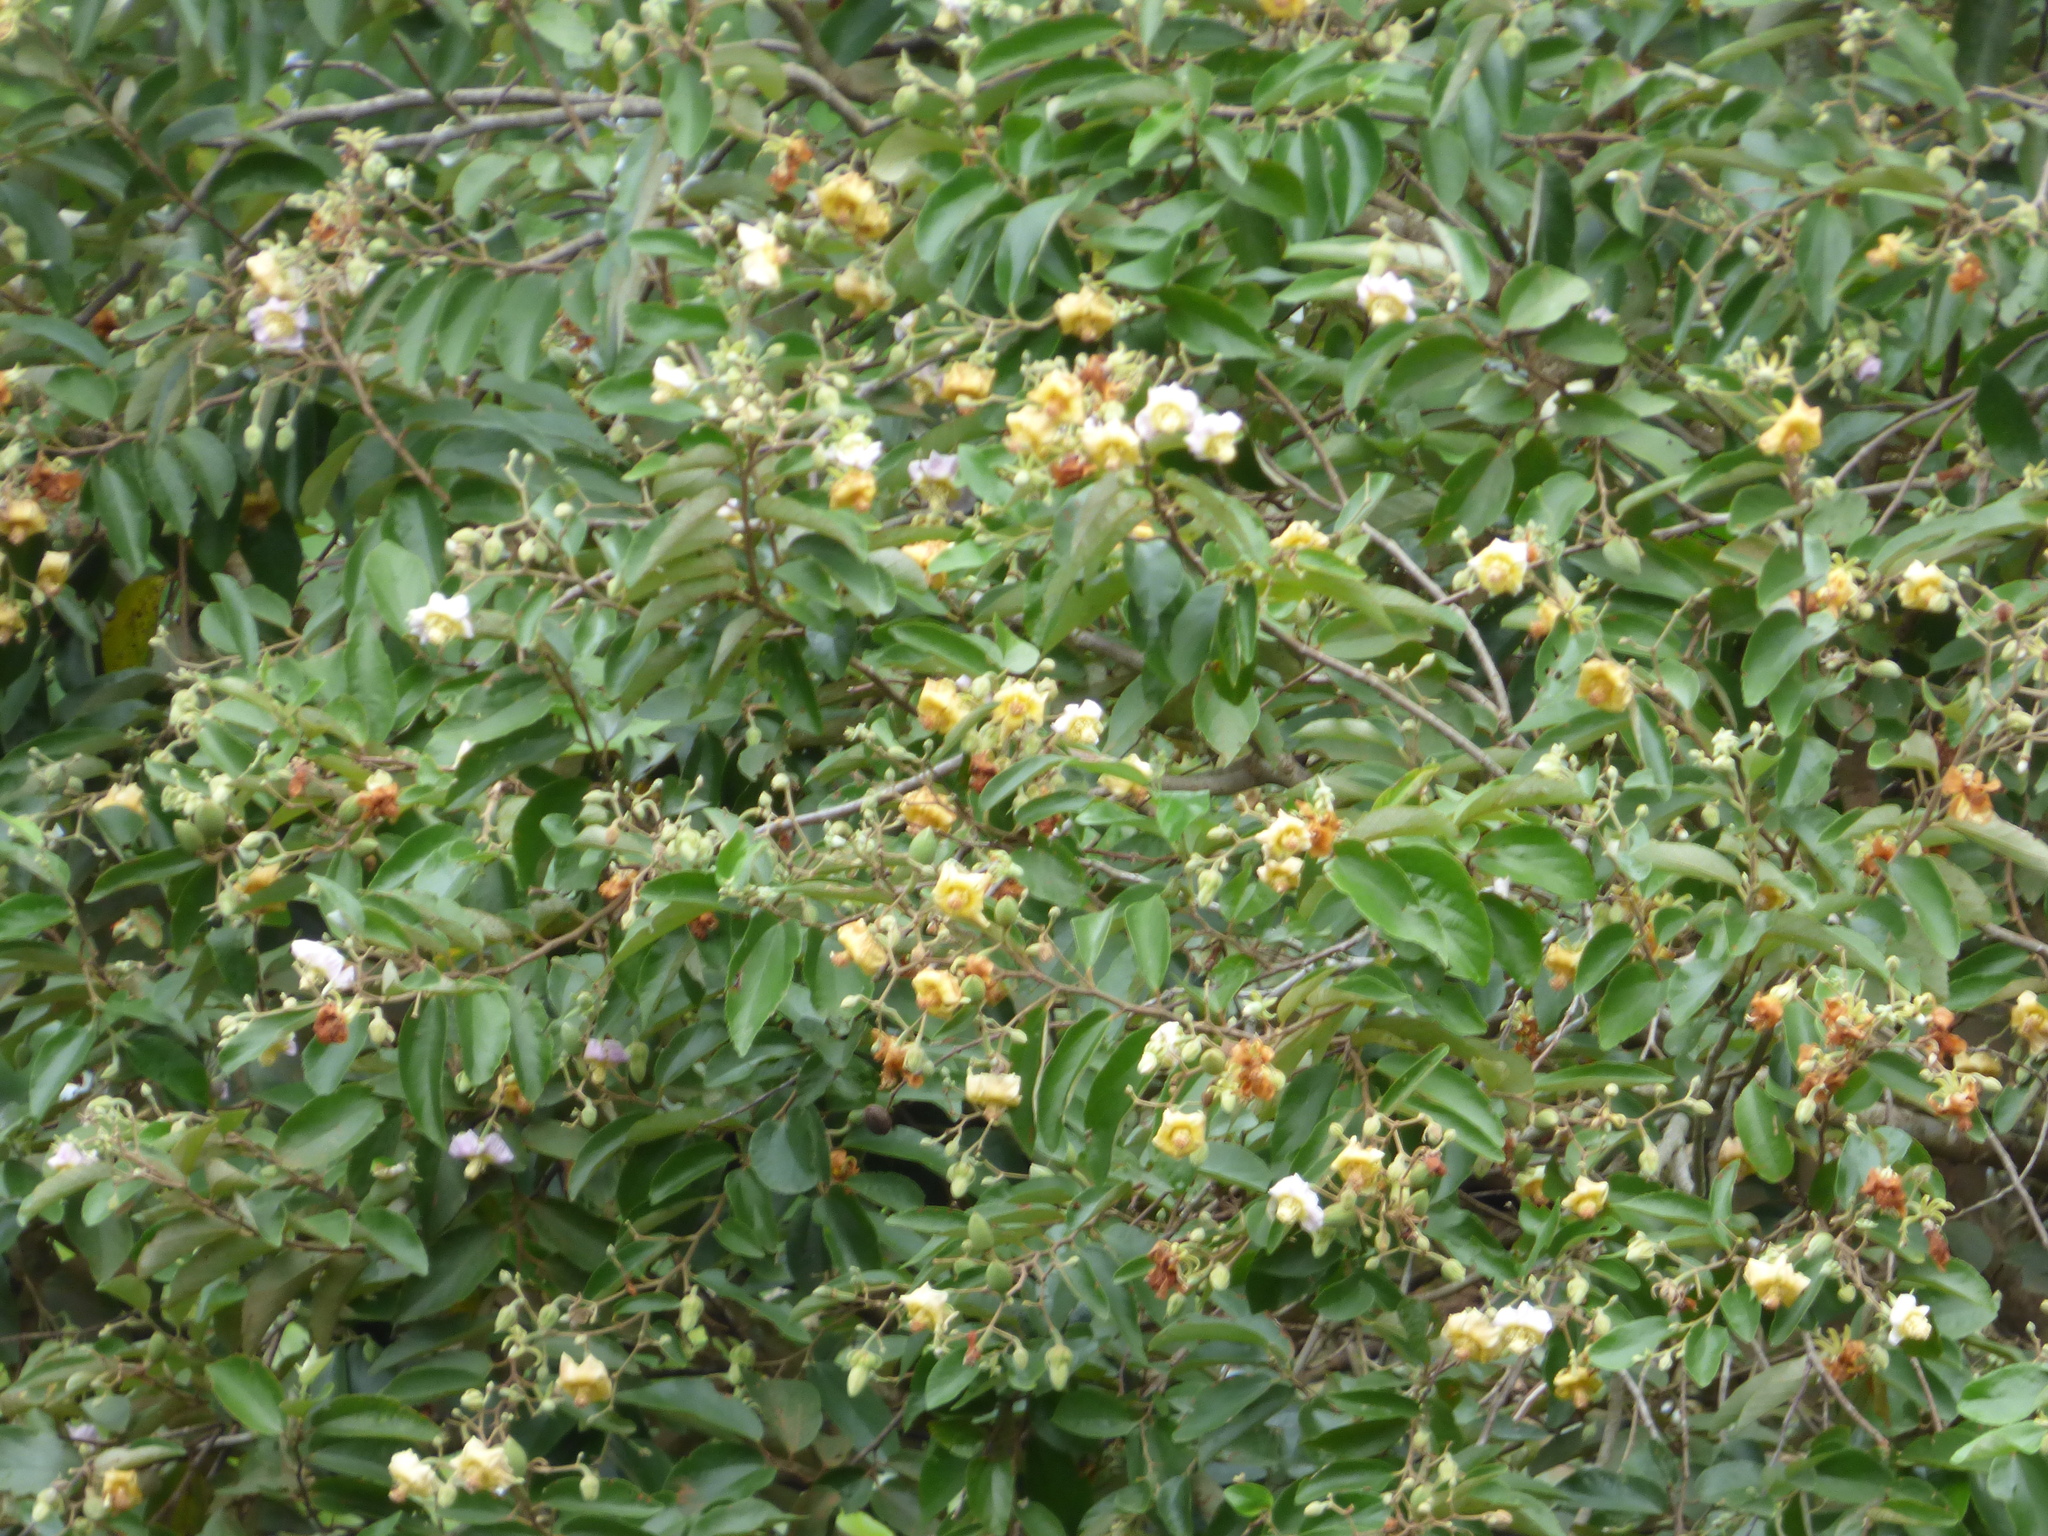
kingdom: Plantae
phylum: Tracheophyta
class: Magnoliopsida
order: Malvales
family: Malvaceae
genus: Luehea
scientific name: Luehea divaricata
